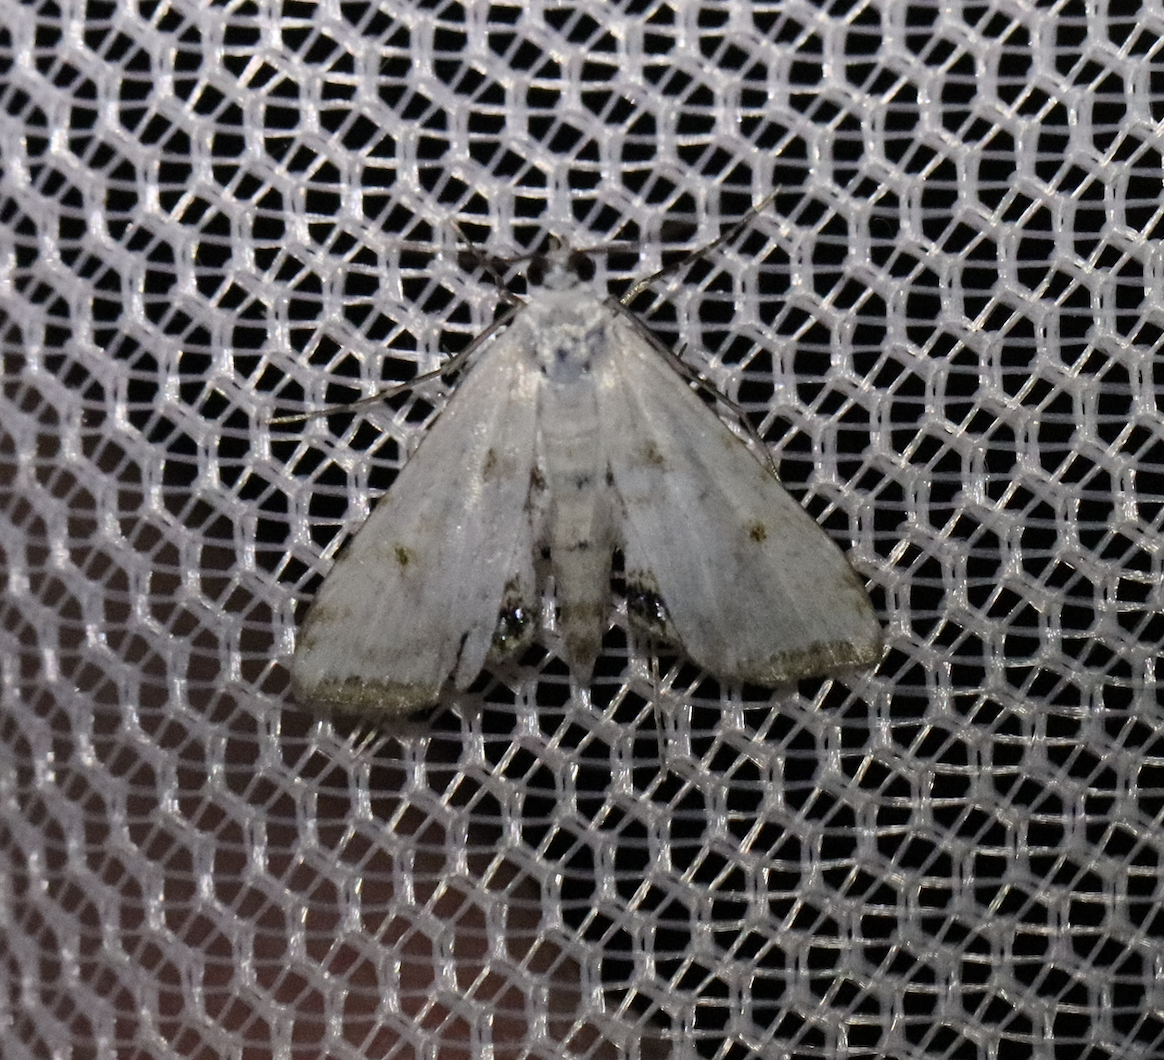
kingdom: Animalia
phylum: Arthropoda
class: Insecta
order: Lepidoptera
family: Crambidae
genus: Cataclysta
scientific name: Cataclysta lemnata
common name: Small china-mark
